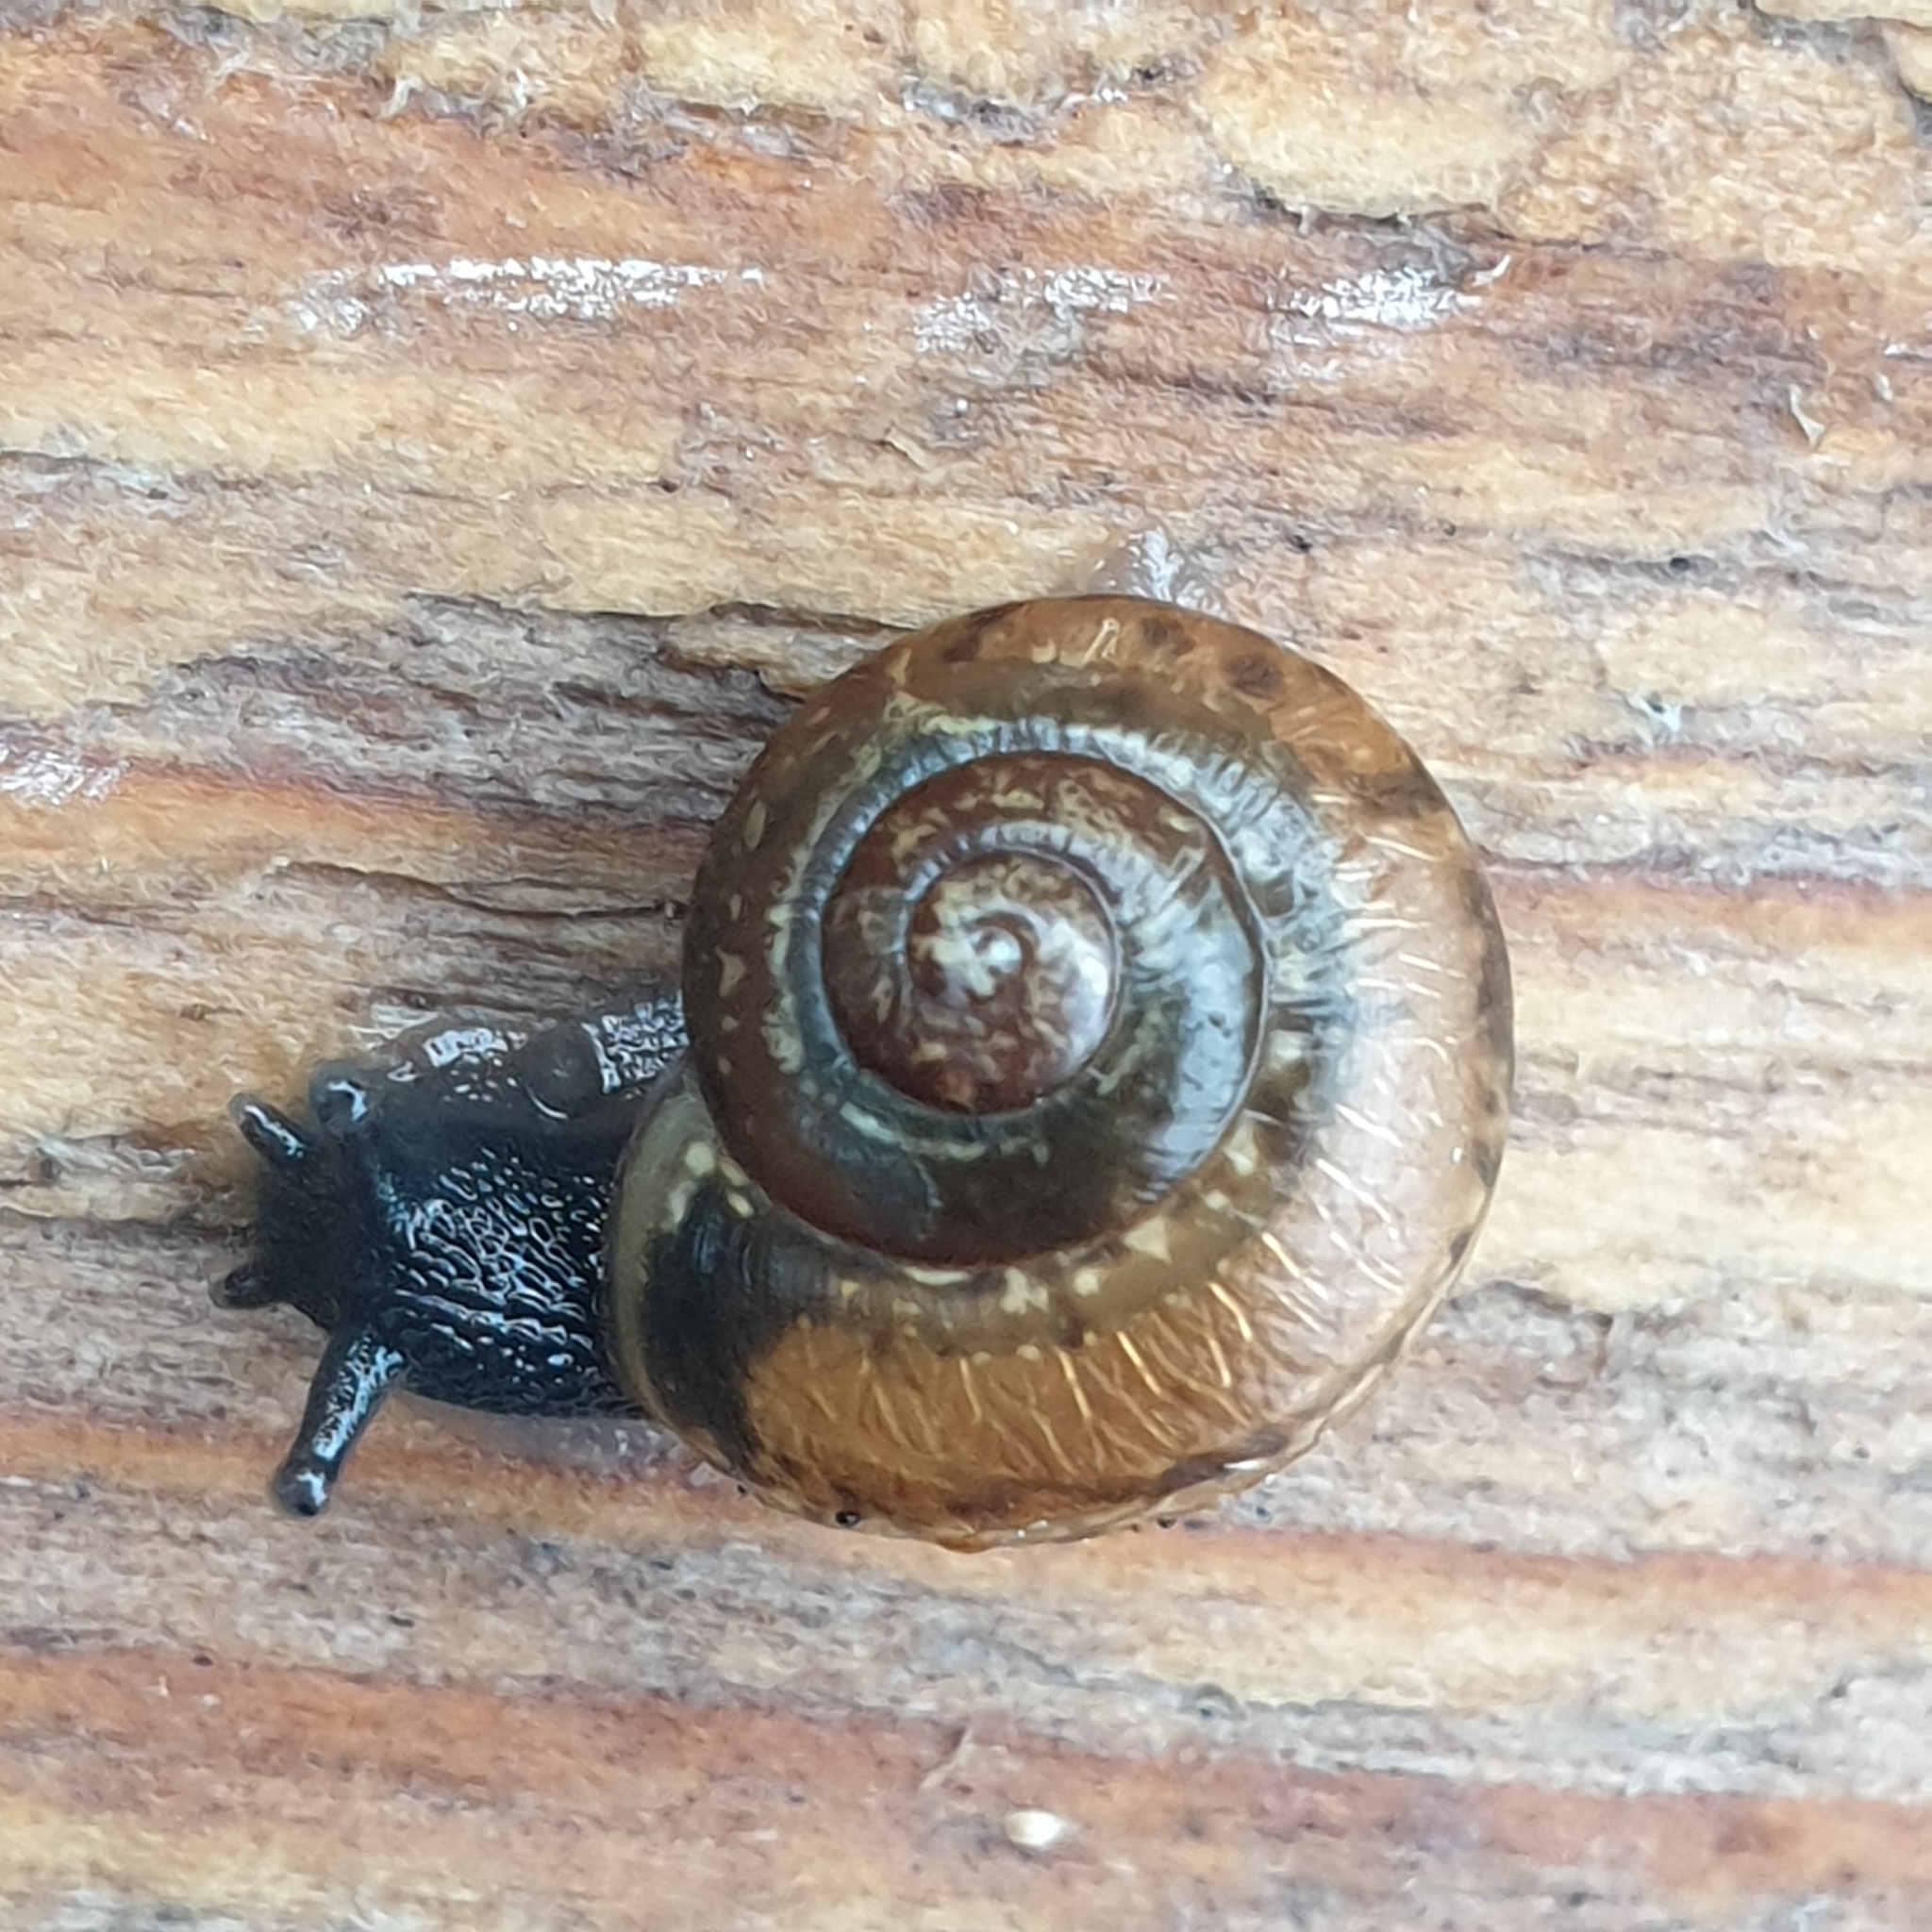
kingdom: Animalia
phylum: Mollusca
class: Gastropoda
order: Stylommatophora
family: Helicidae
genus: Arianta
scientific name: Arianta arbustorum
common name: Copse snail
